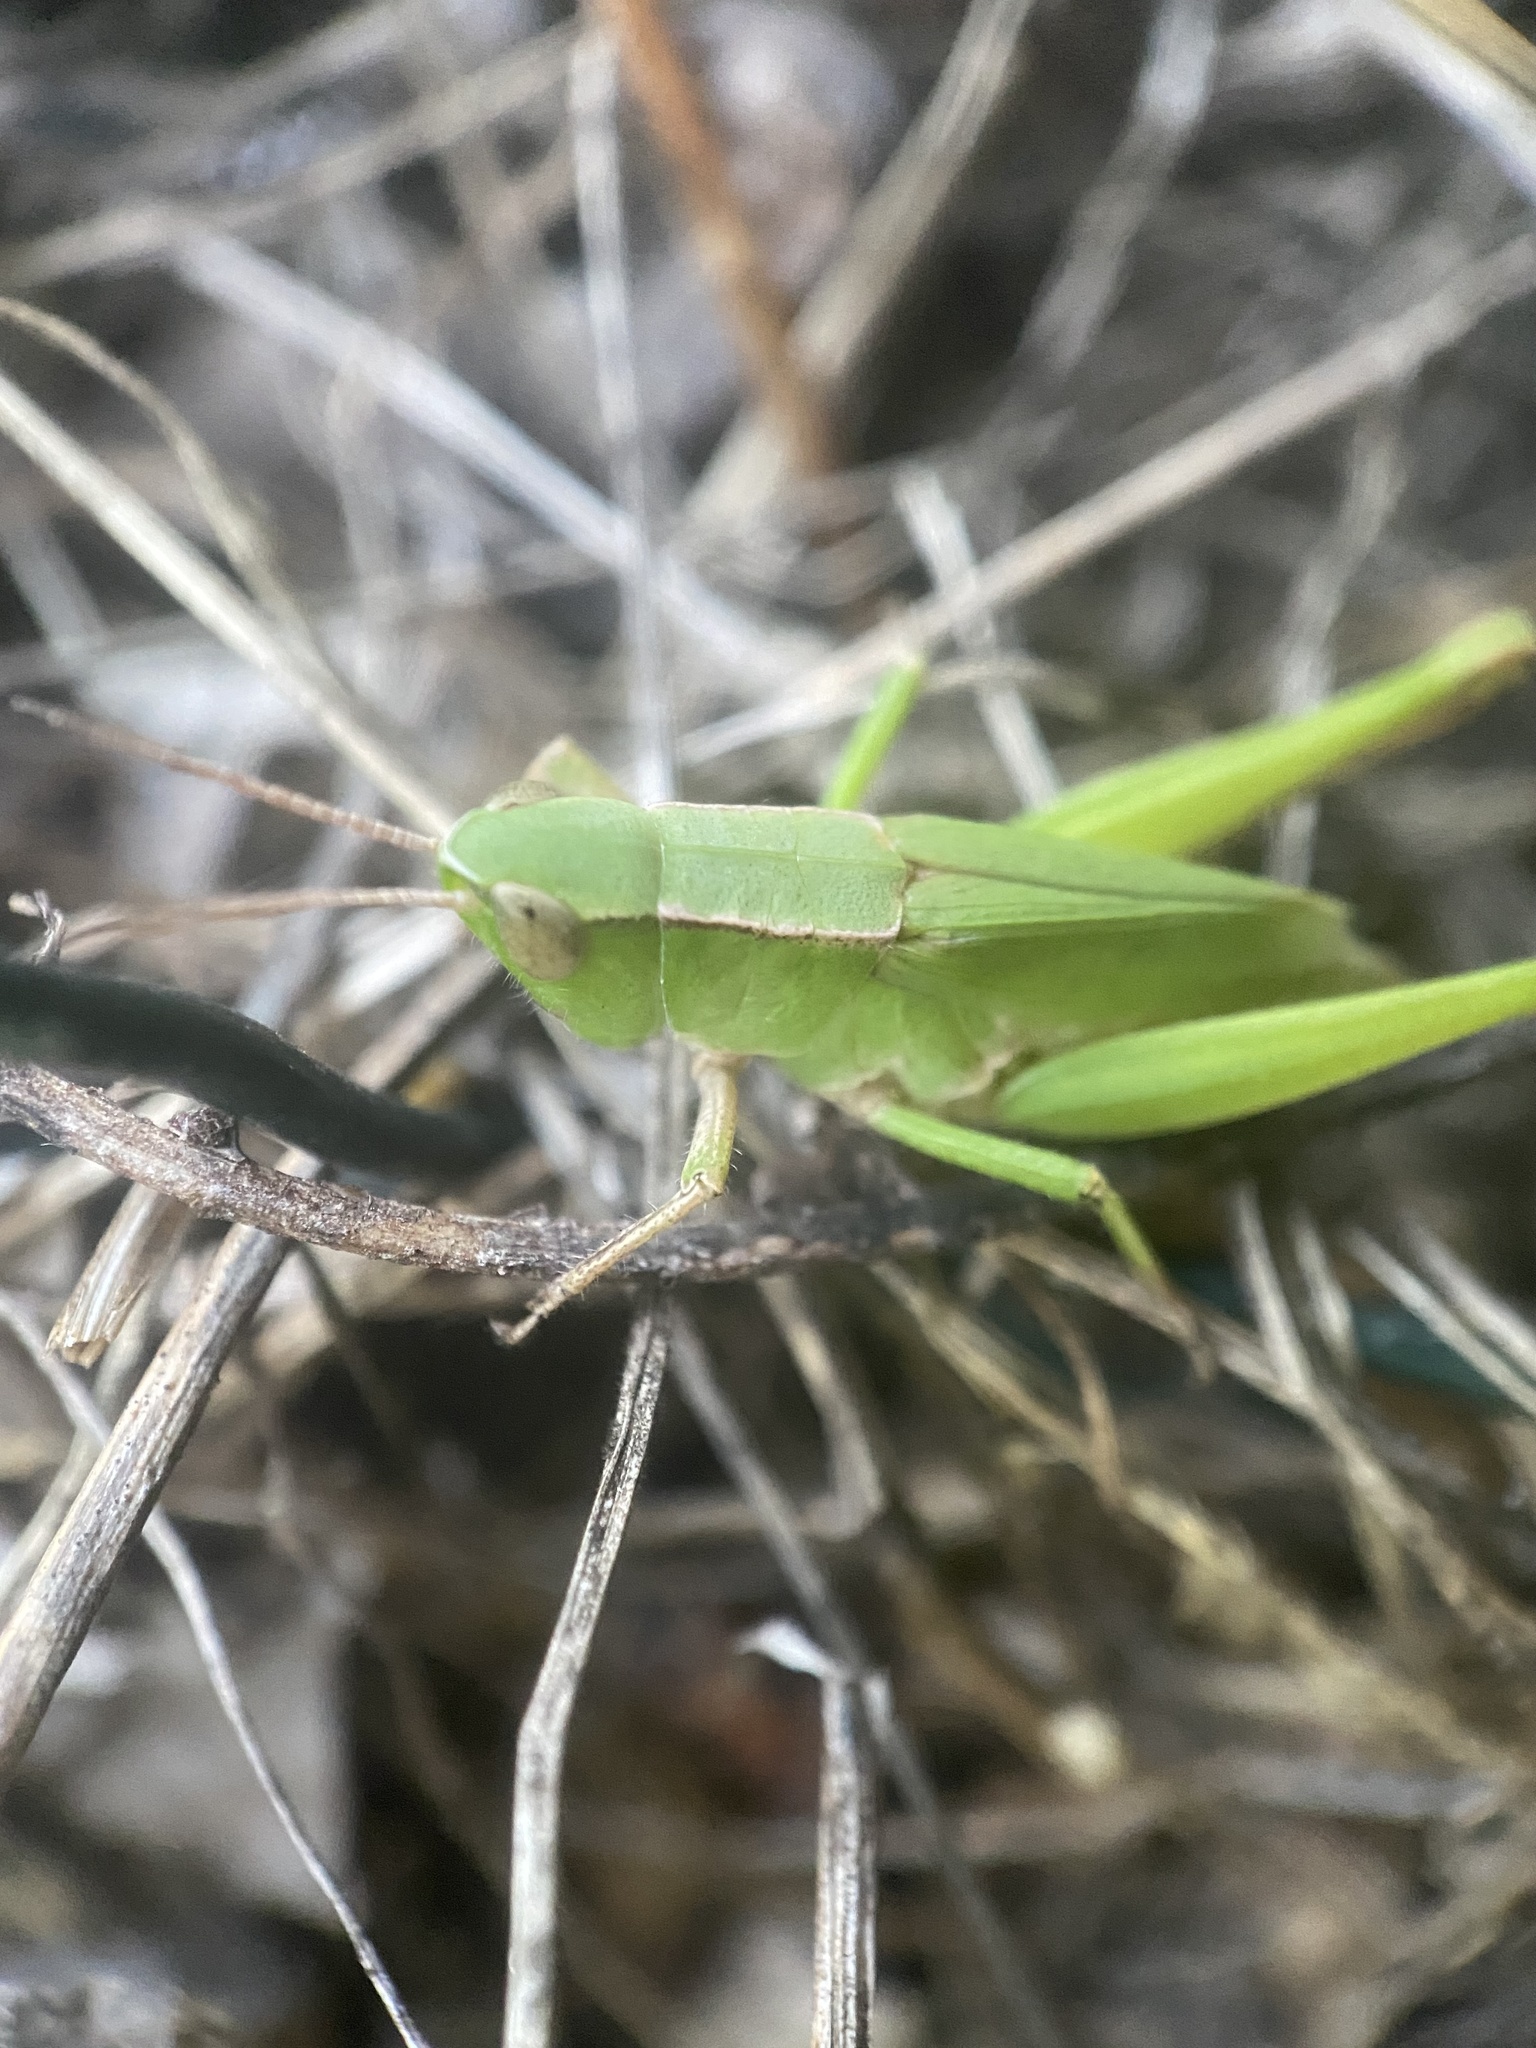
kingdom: Animalia
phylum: Arthropoda
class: Insecta
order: Orthoptera
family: Acrididae
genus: Dichromorpha
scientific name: Dichromorpha viridis
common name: Short-winged green grasshopper
